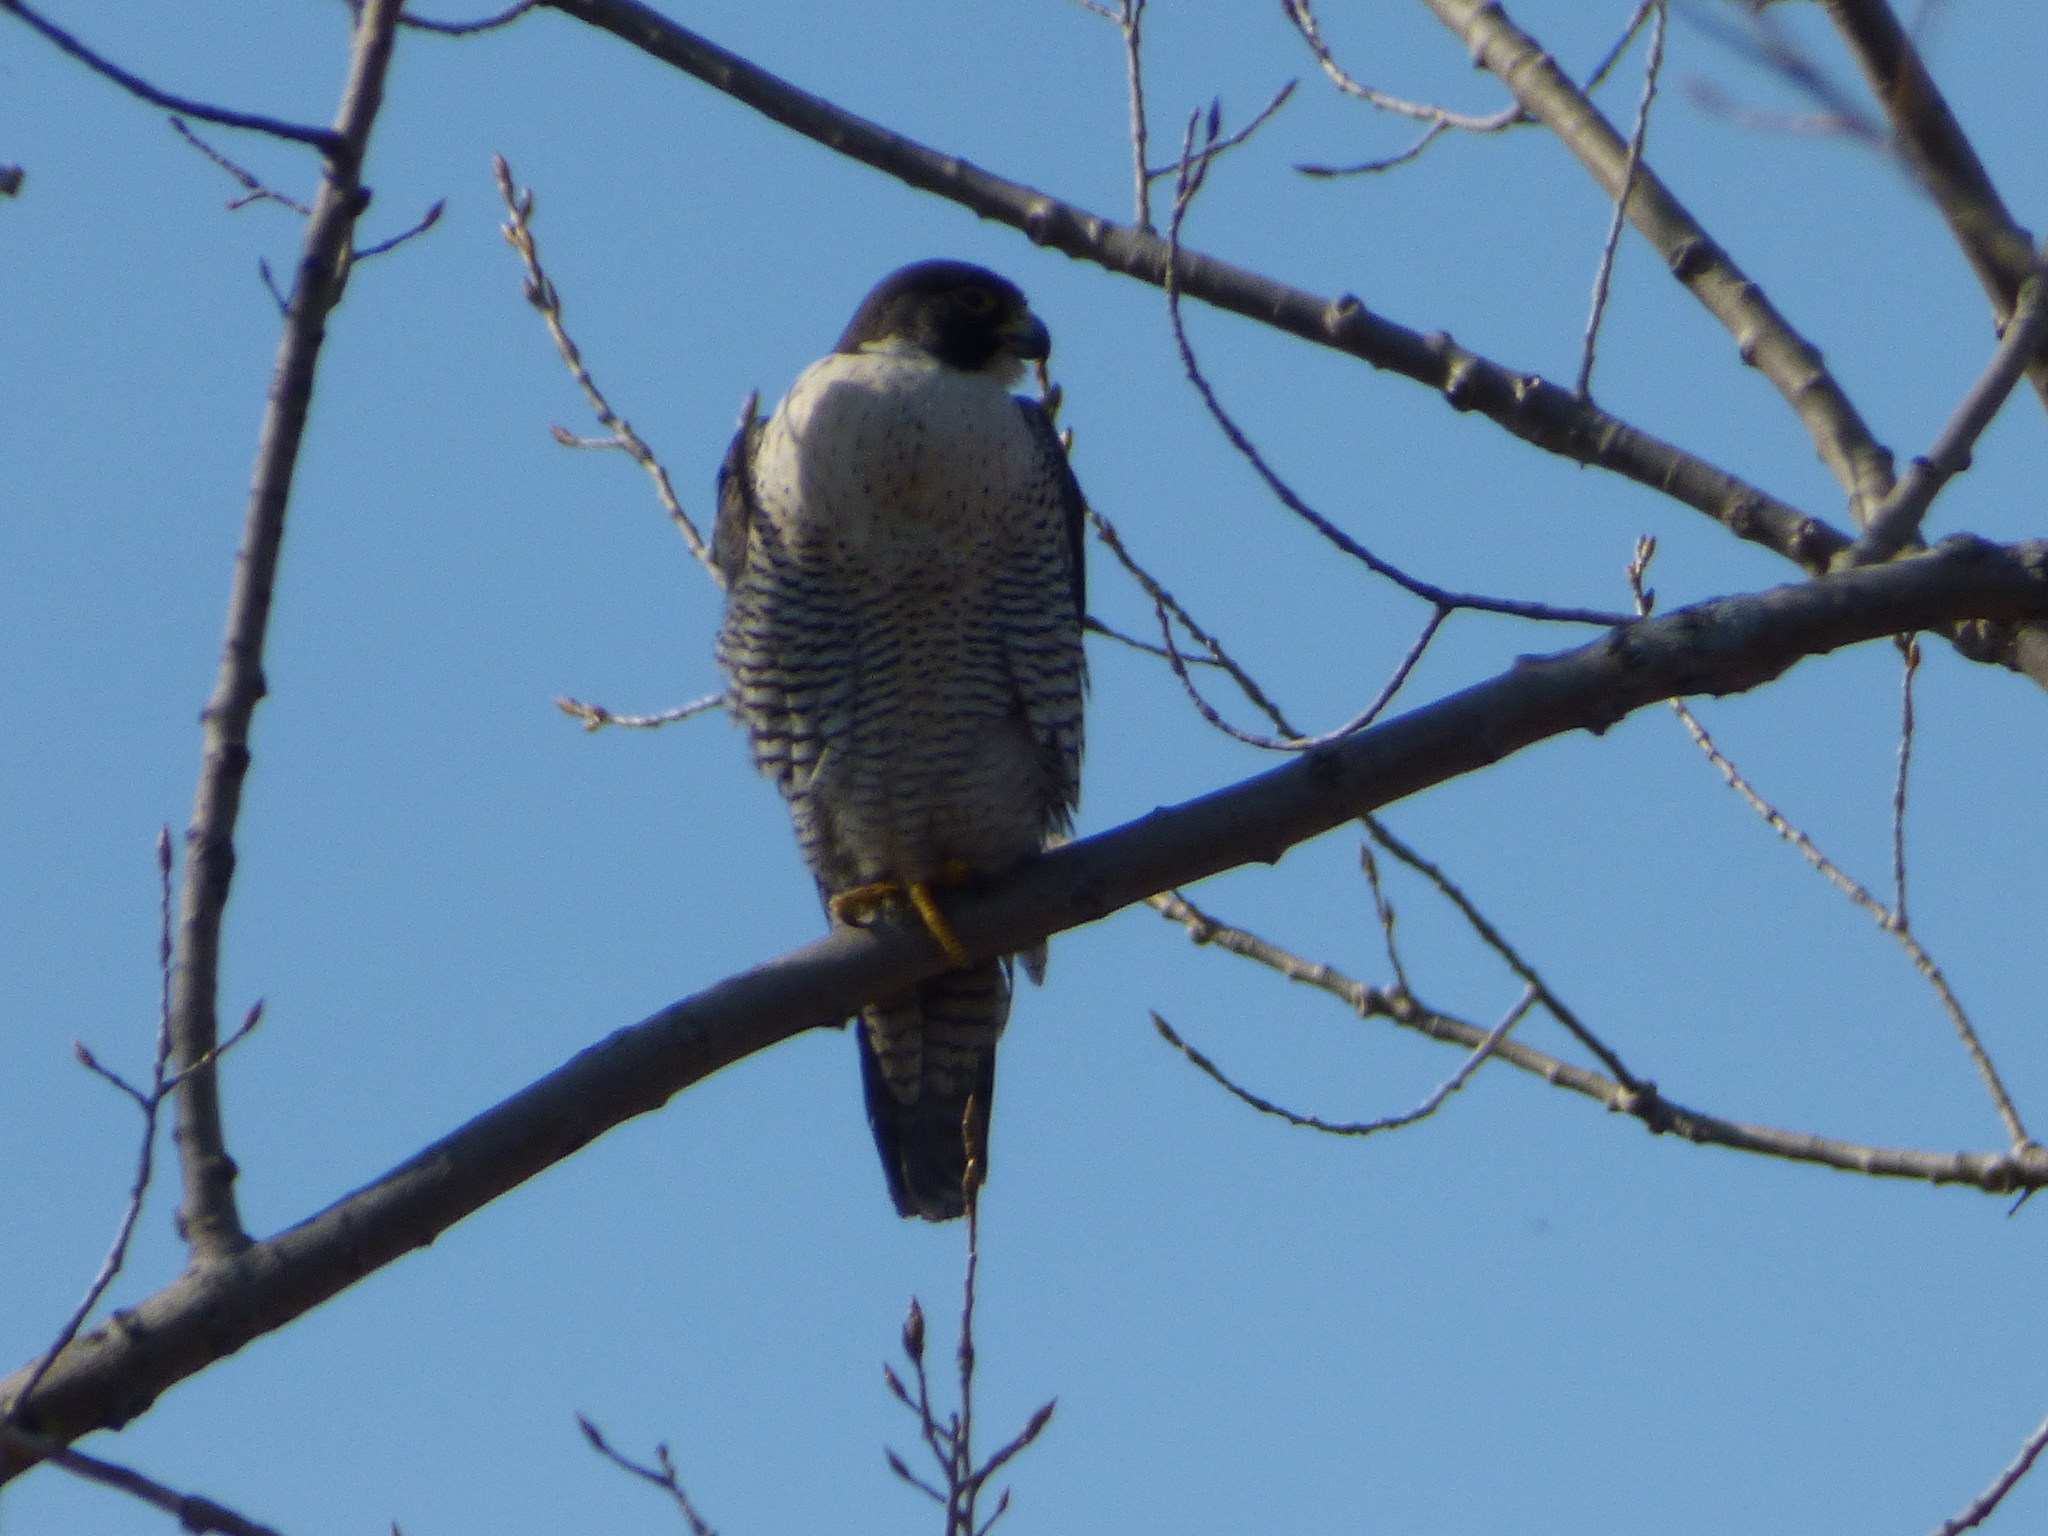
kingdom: Animalia
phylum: Chordata
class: Aves
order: Falconiformes
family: Falconidae
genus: Falco
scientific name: Falco peregrinus
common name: Peregrine falcon
